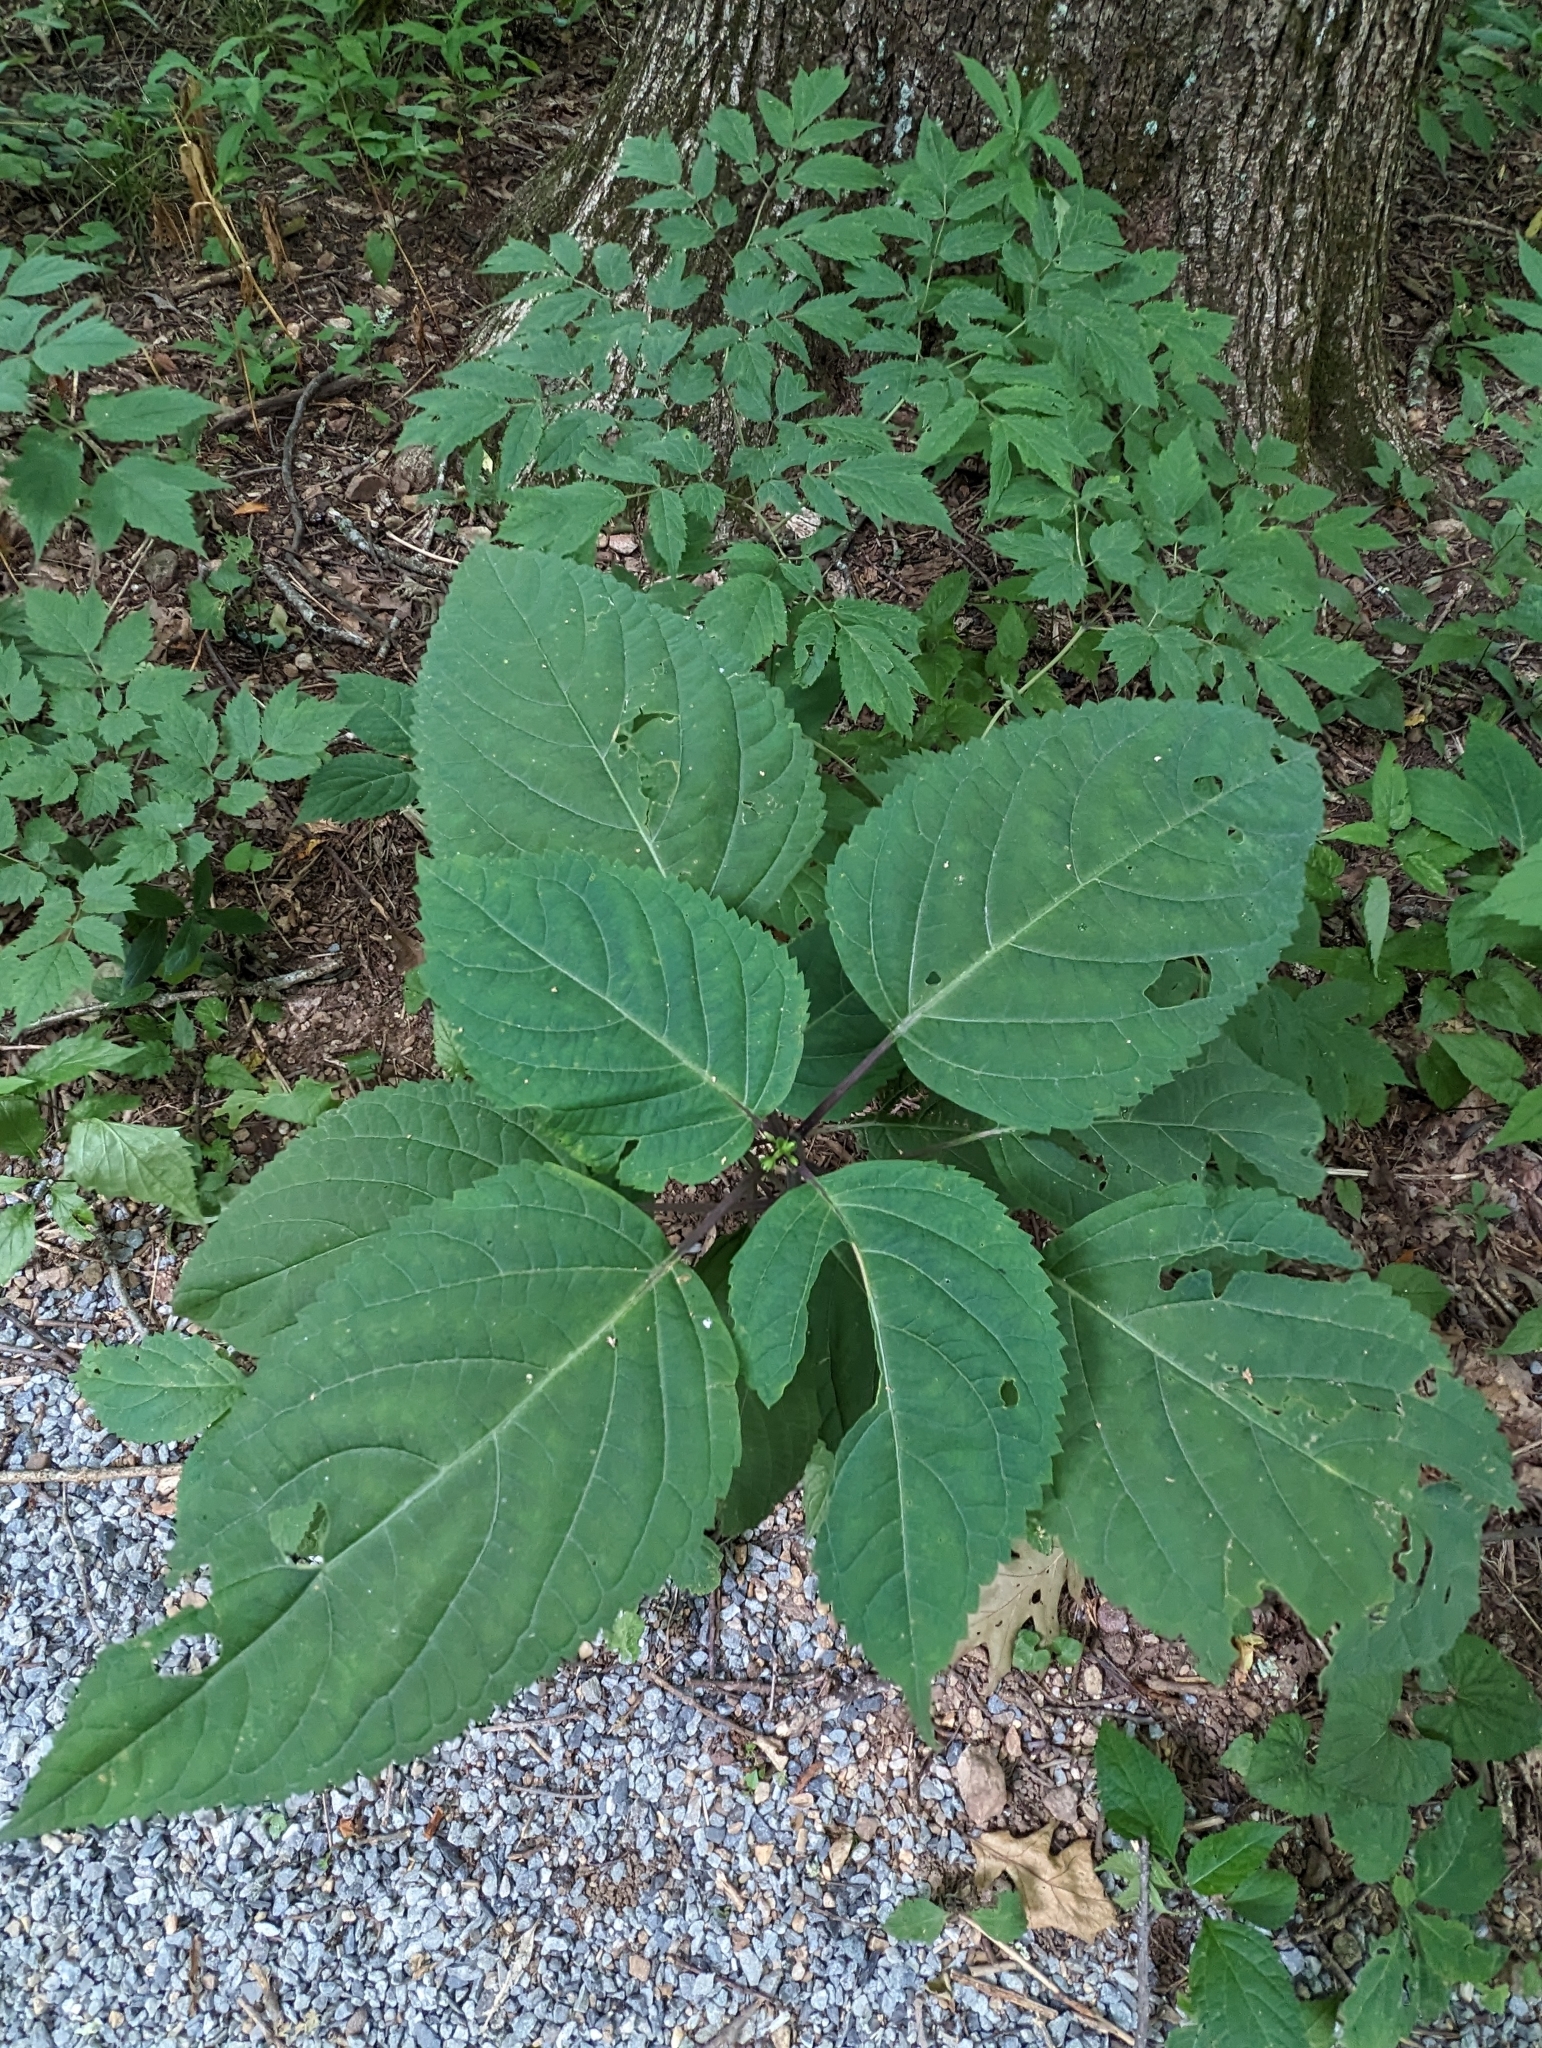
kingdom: Plantae
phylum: Tracheophyta
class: Magnoliopsida
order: Lamiales
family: Lamiaceae
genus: Collinsonia
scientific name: Collinsonia canadensis
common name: Northern horsebalm
